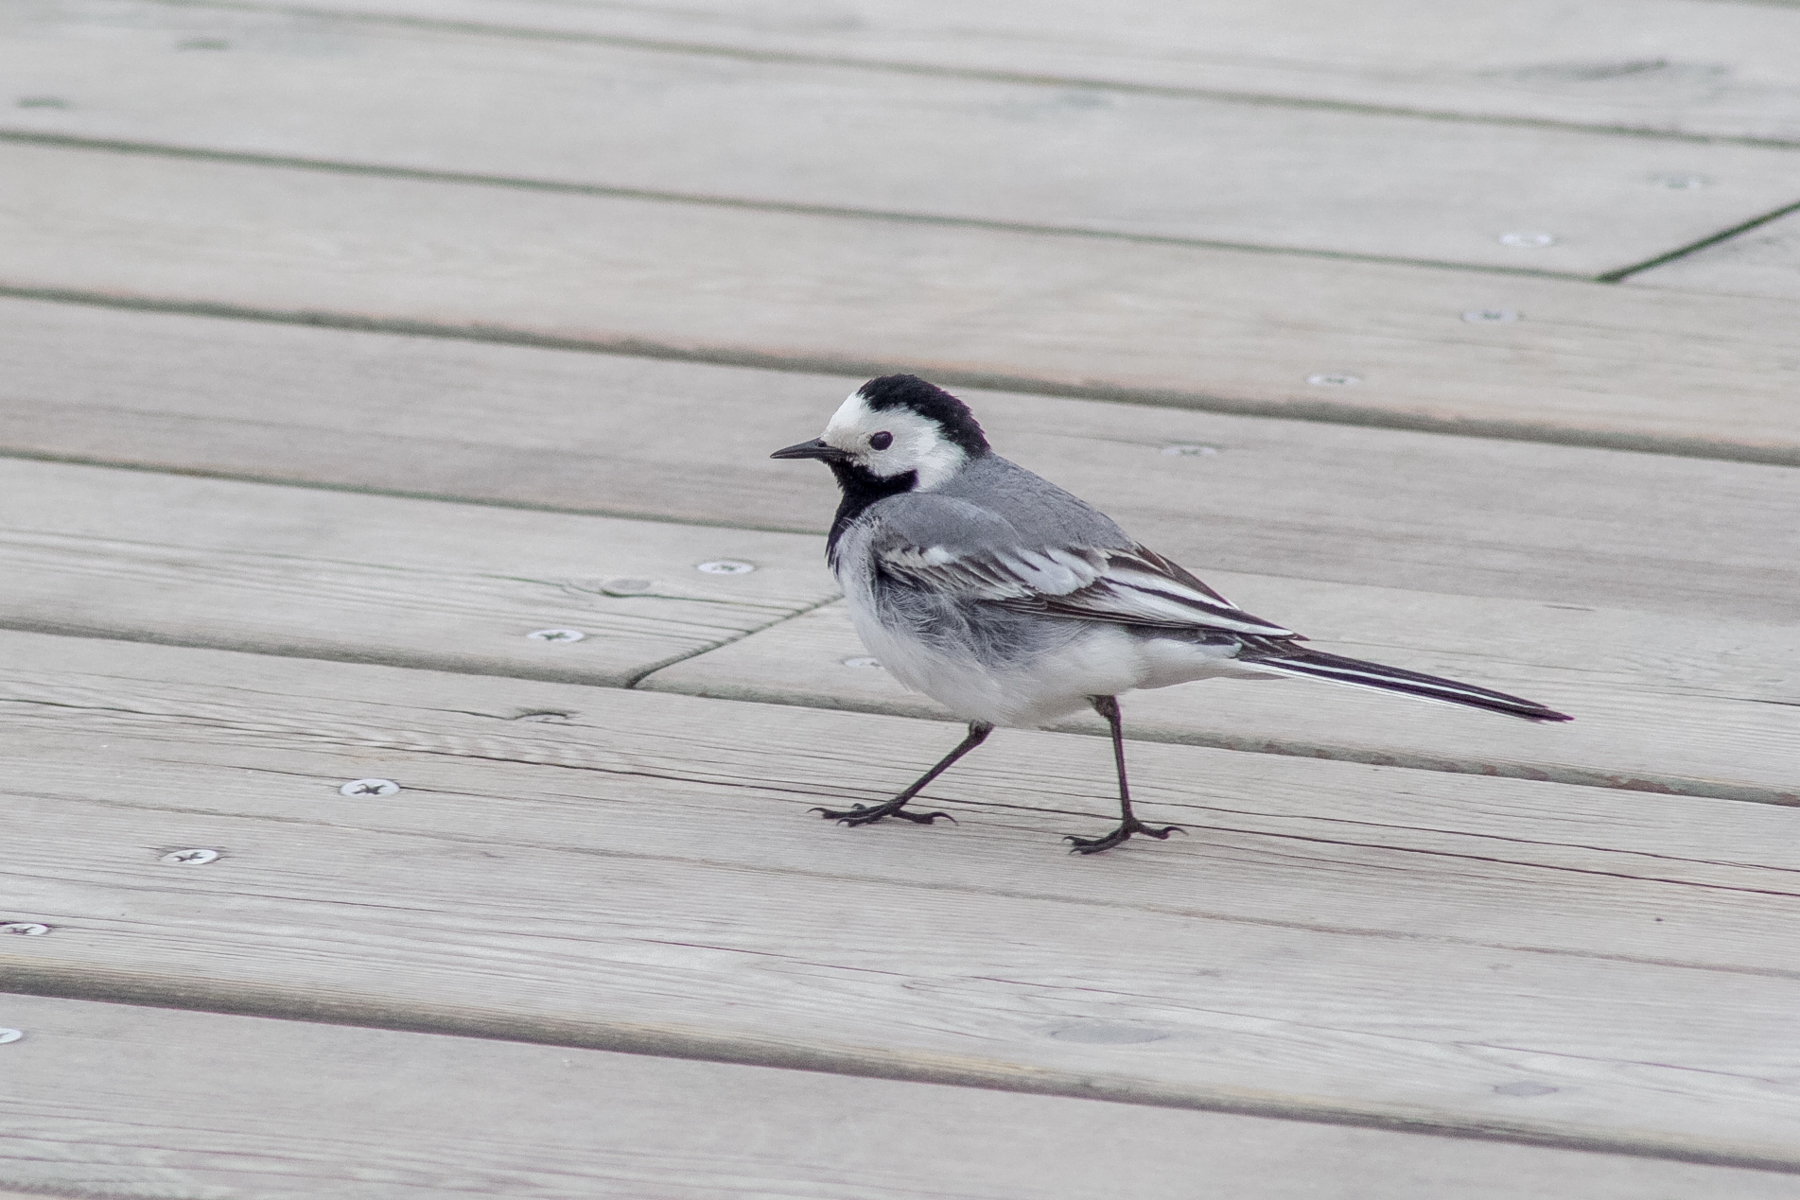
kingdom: Animalia
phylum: Chordata
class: Aves
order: Passeriformes
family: Motacillidae
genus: Motacilla
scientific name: Motacilla alba
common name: White wagtail
